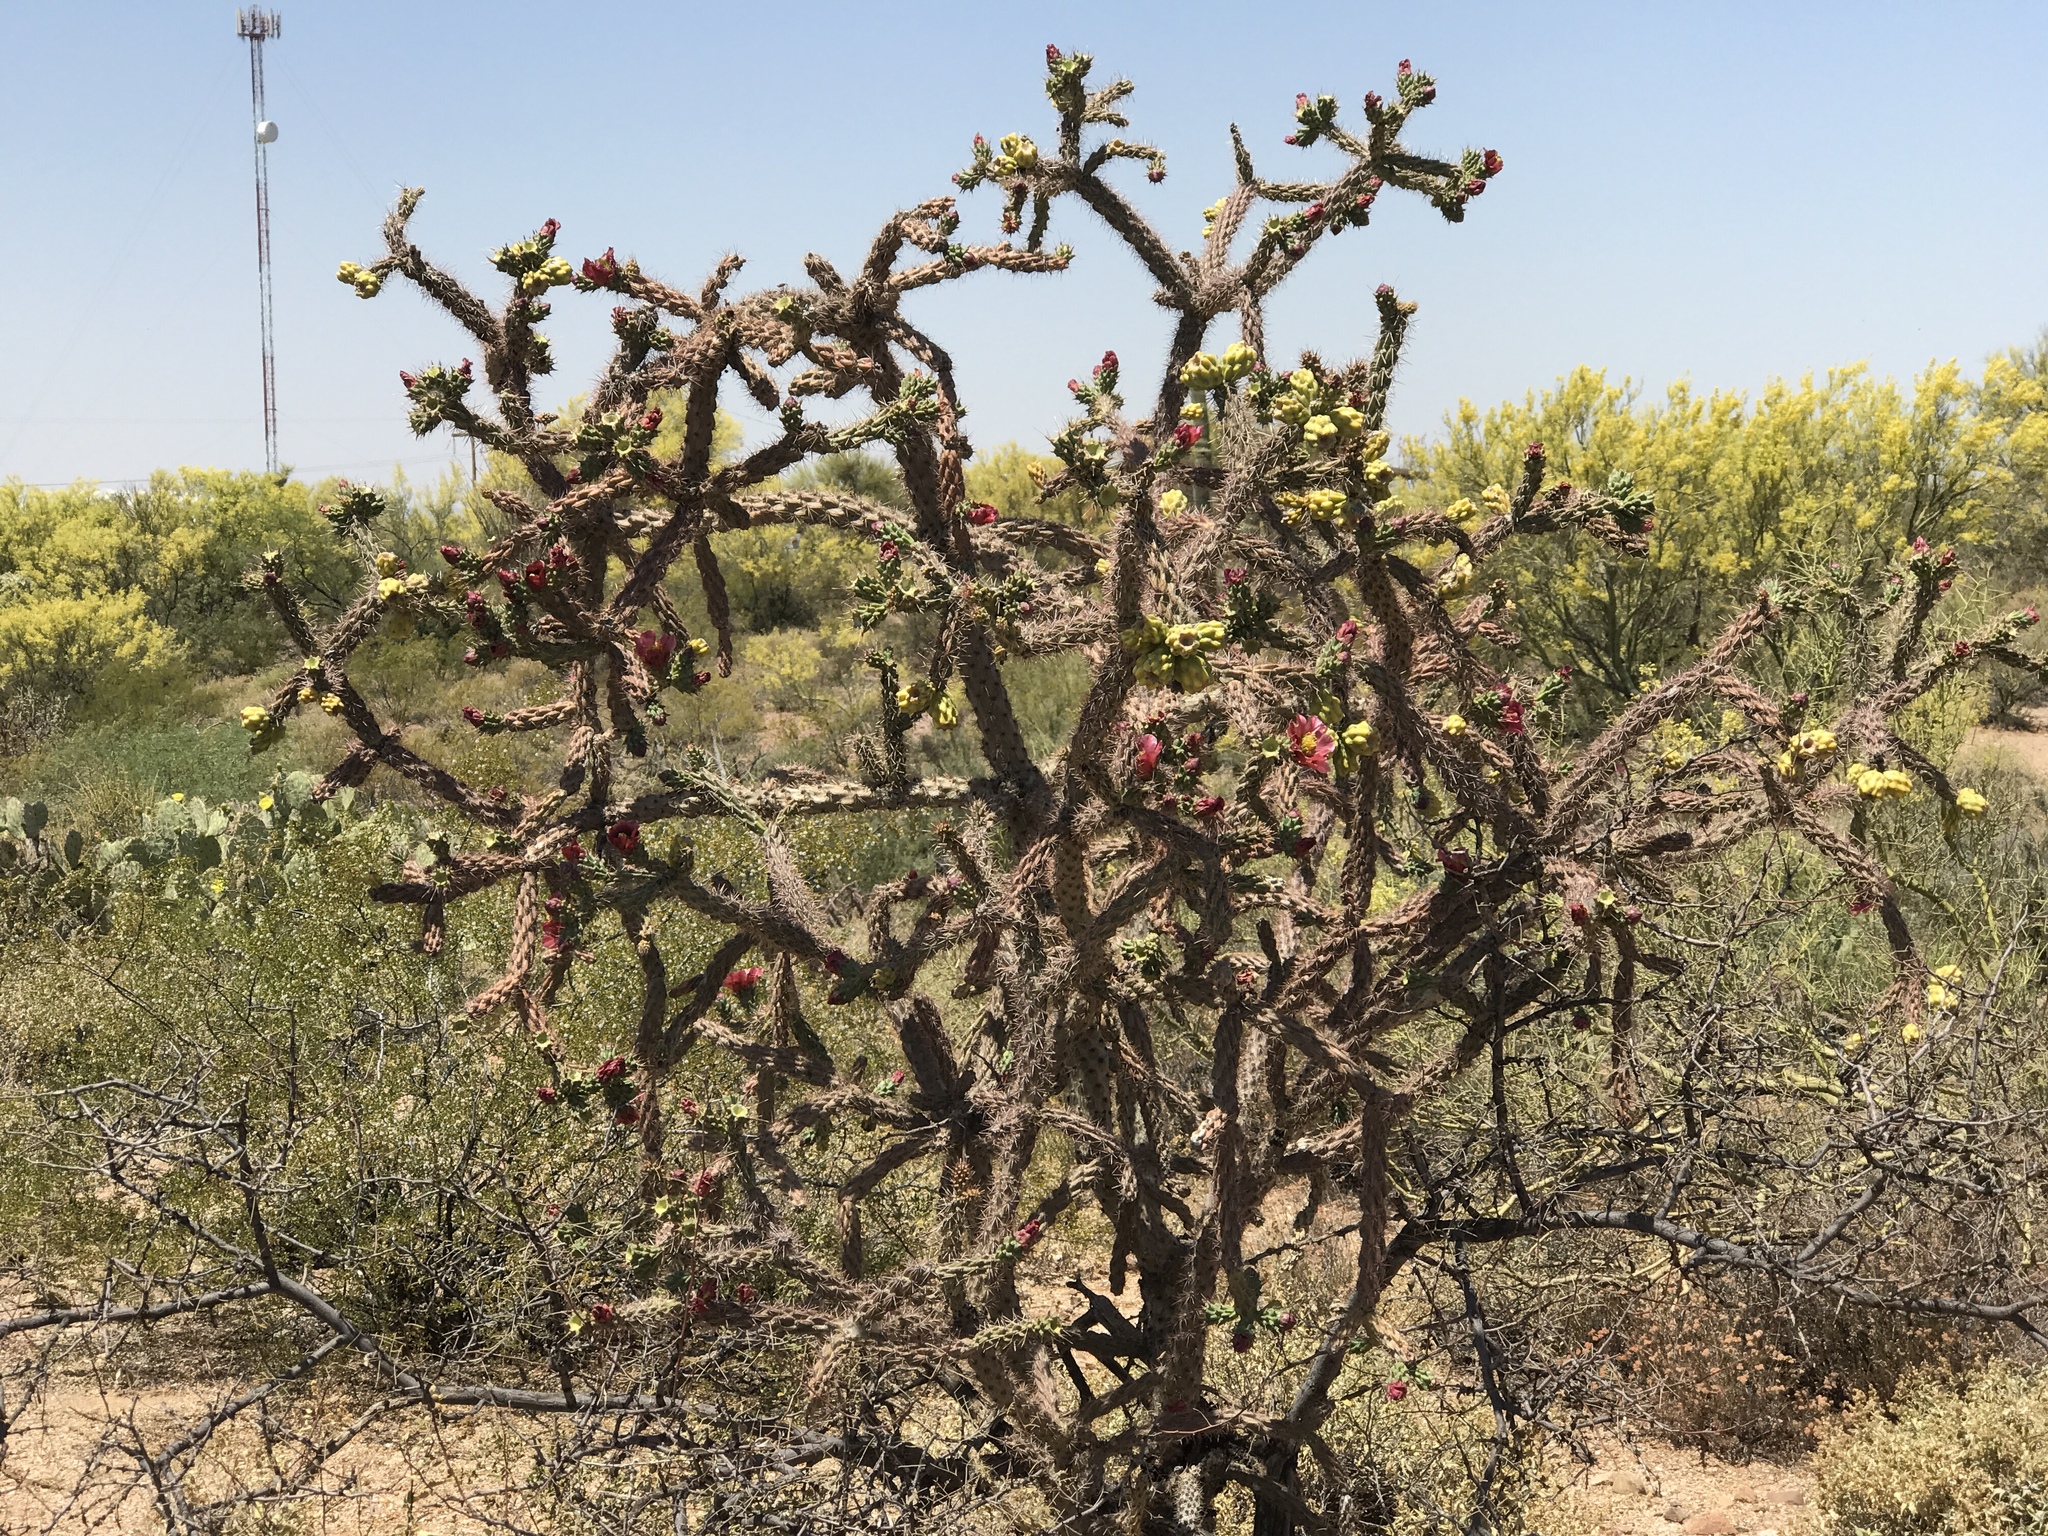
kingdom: Plantae
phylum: Tracheophyta
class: Magnoliopsida
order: Caryophyllales
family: Cactaceae
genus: Cylindropuntia
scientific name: Cylindropuntia thurberi
